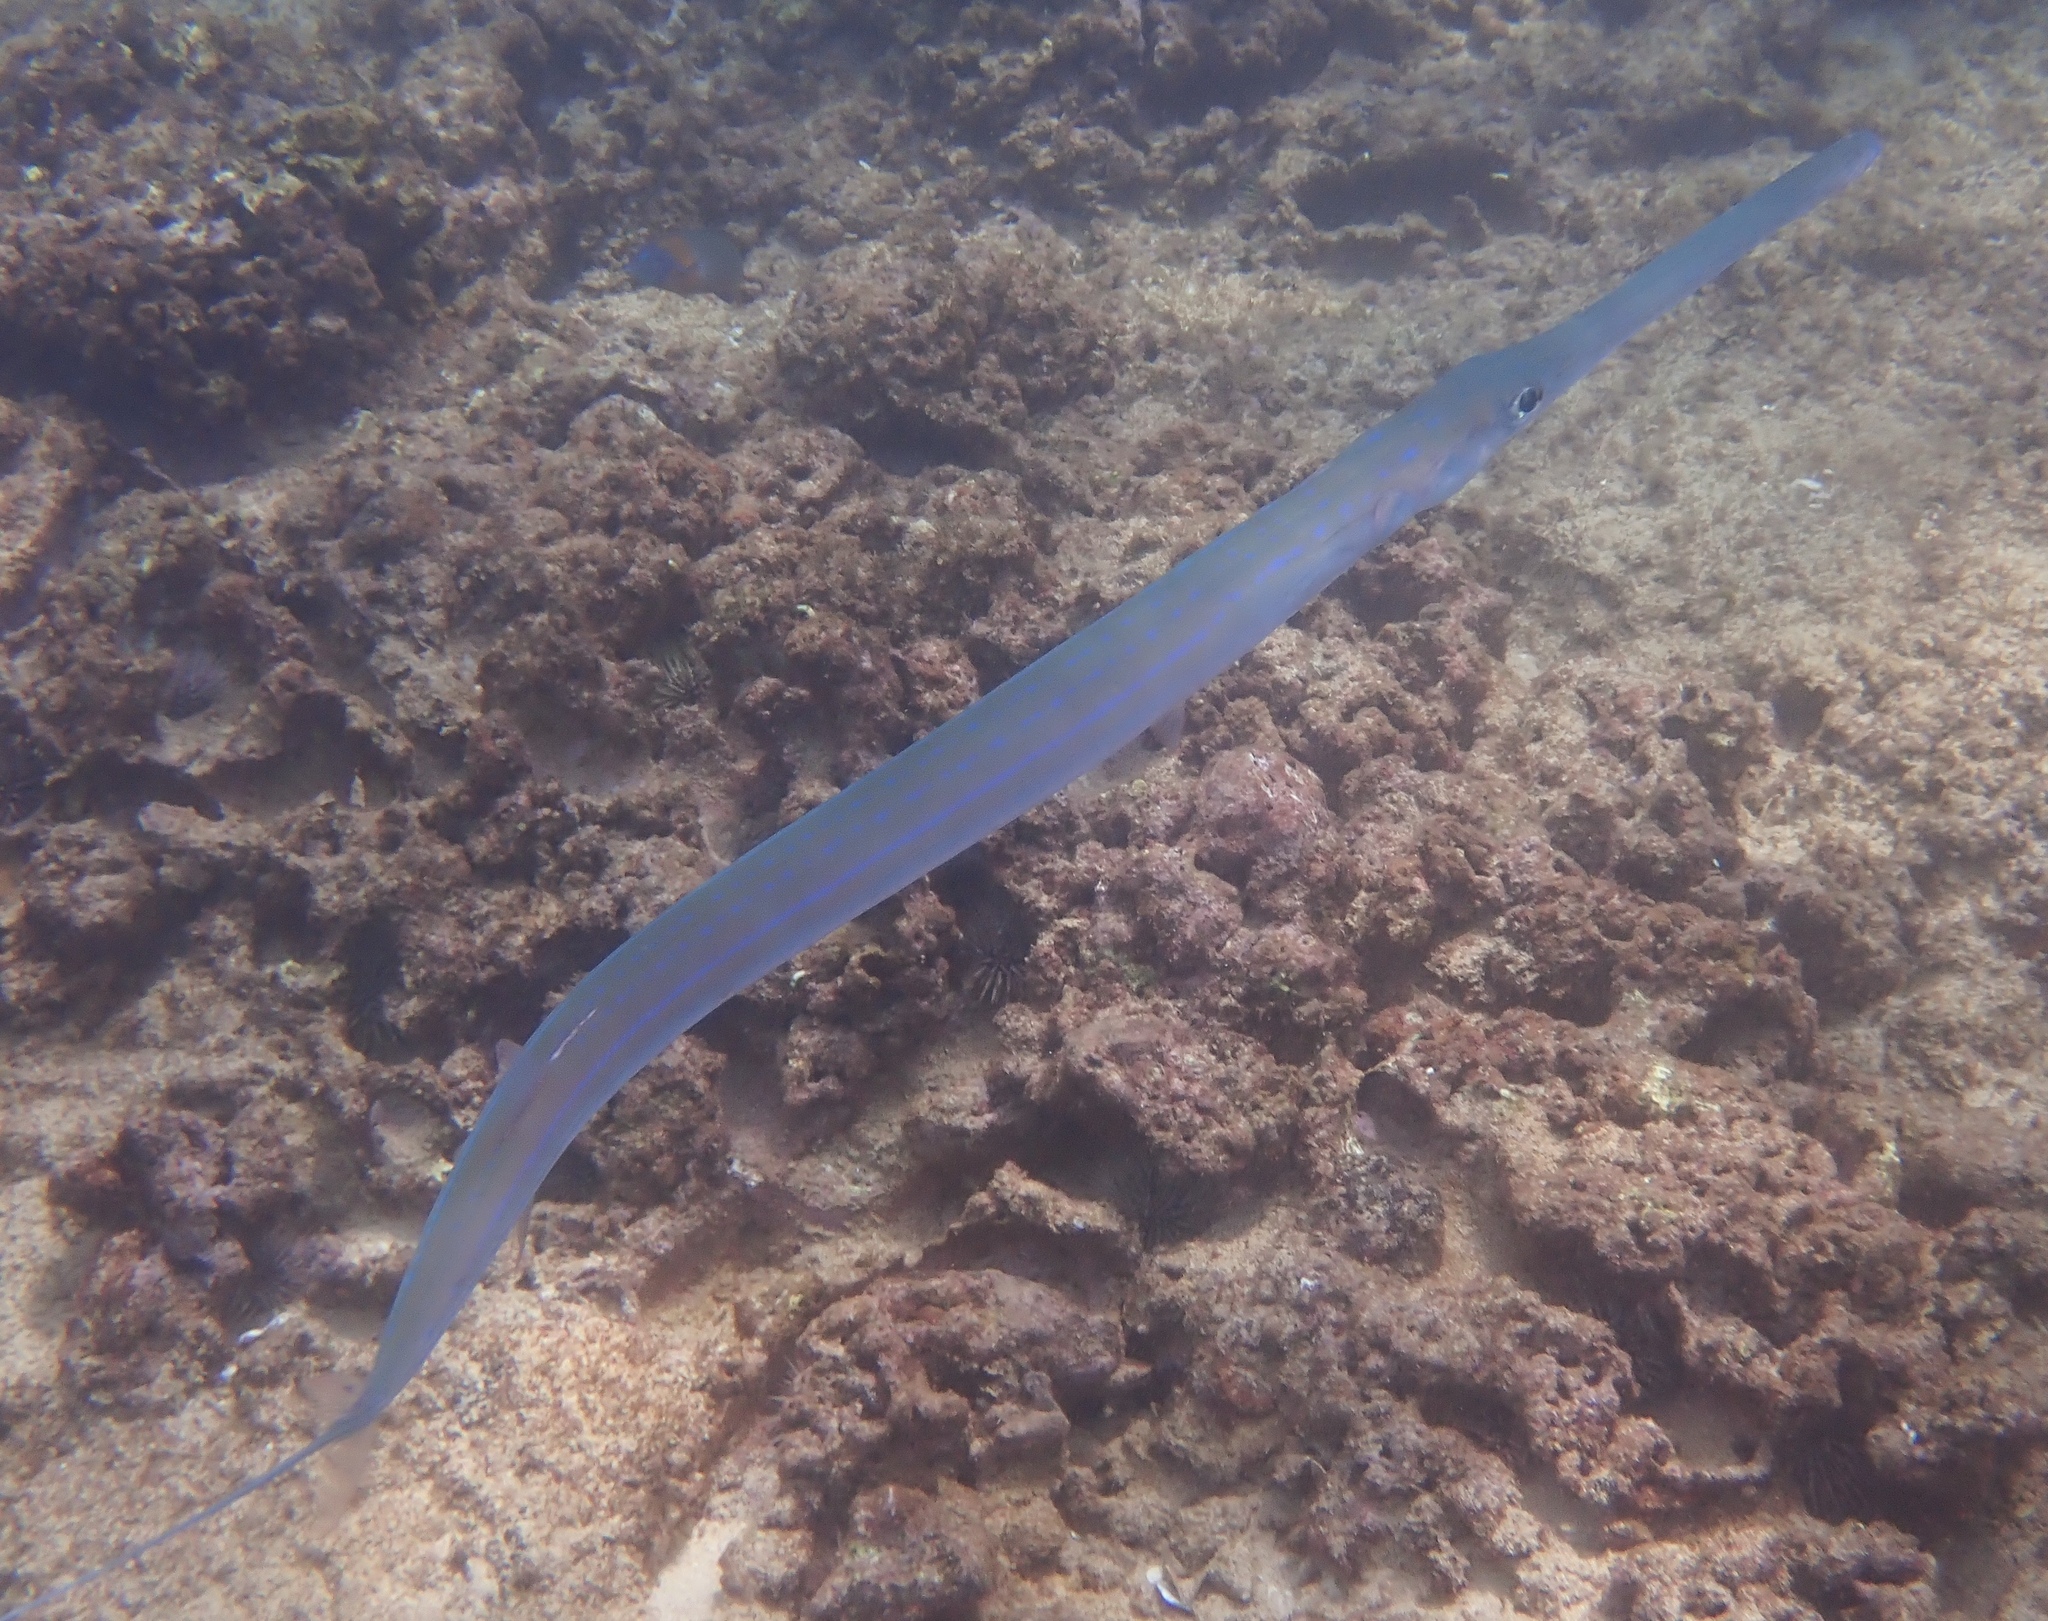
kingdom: Animalia
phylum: Chordata
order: Syngnathiformes
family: Fistulariidae
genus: Fistularia
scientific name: Fistularia commersonii
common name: Bluespotted cornetfish
